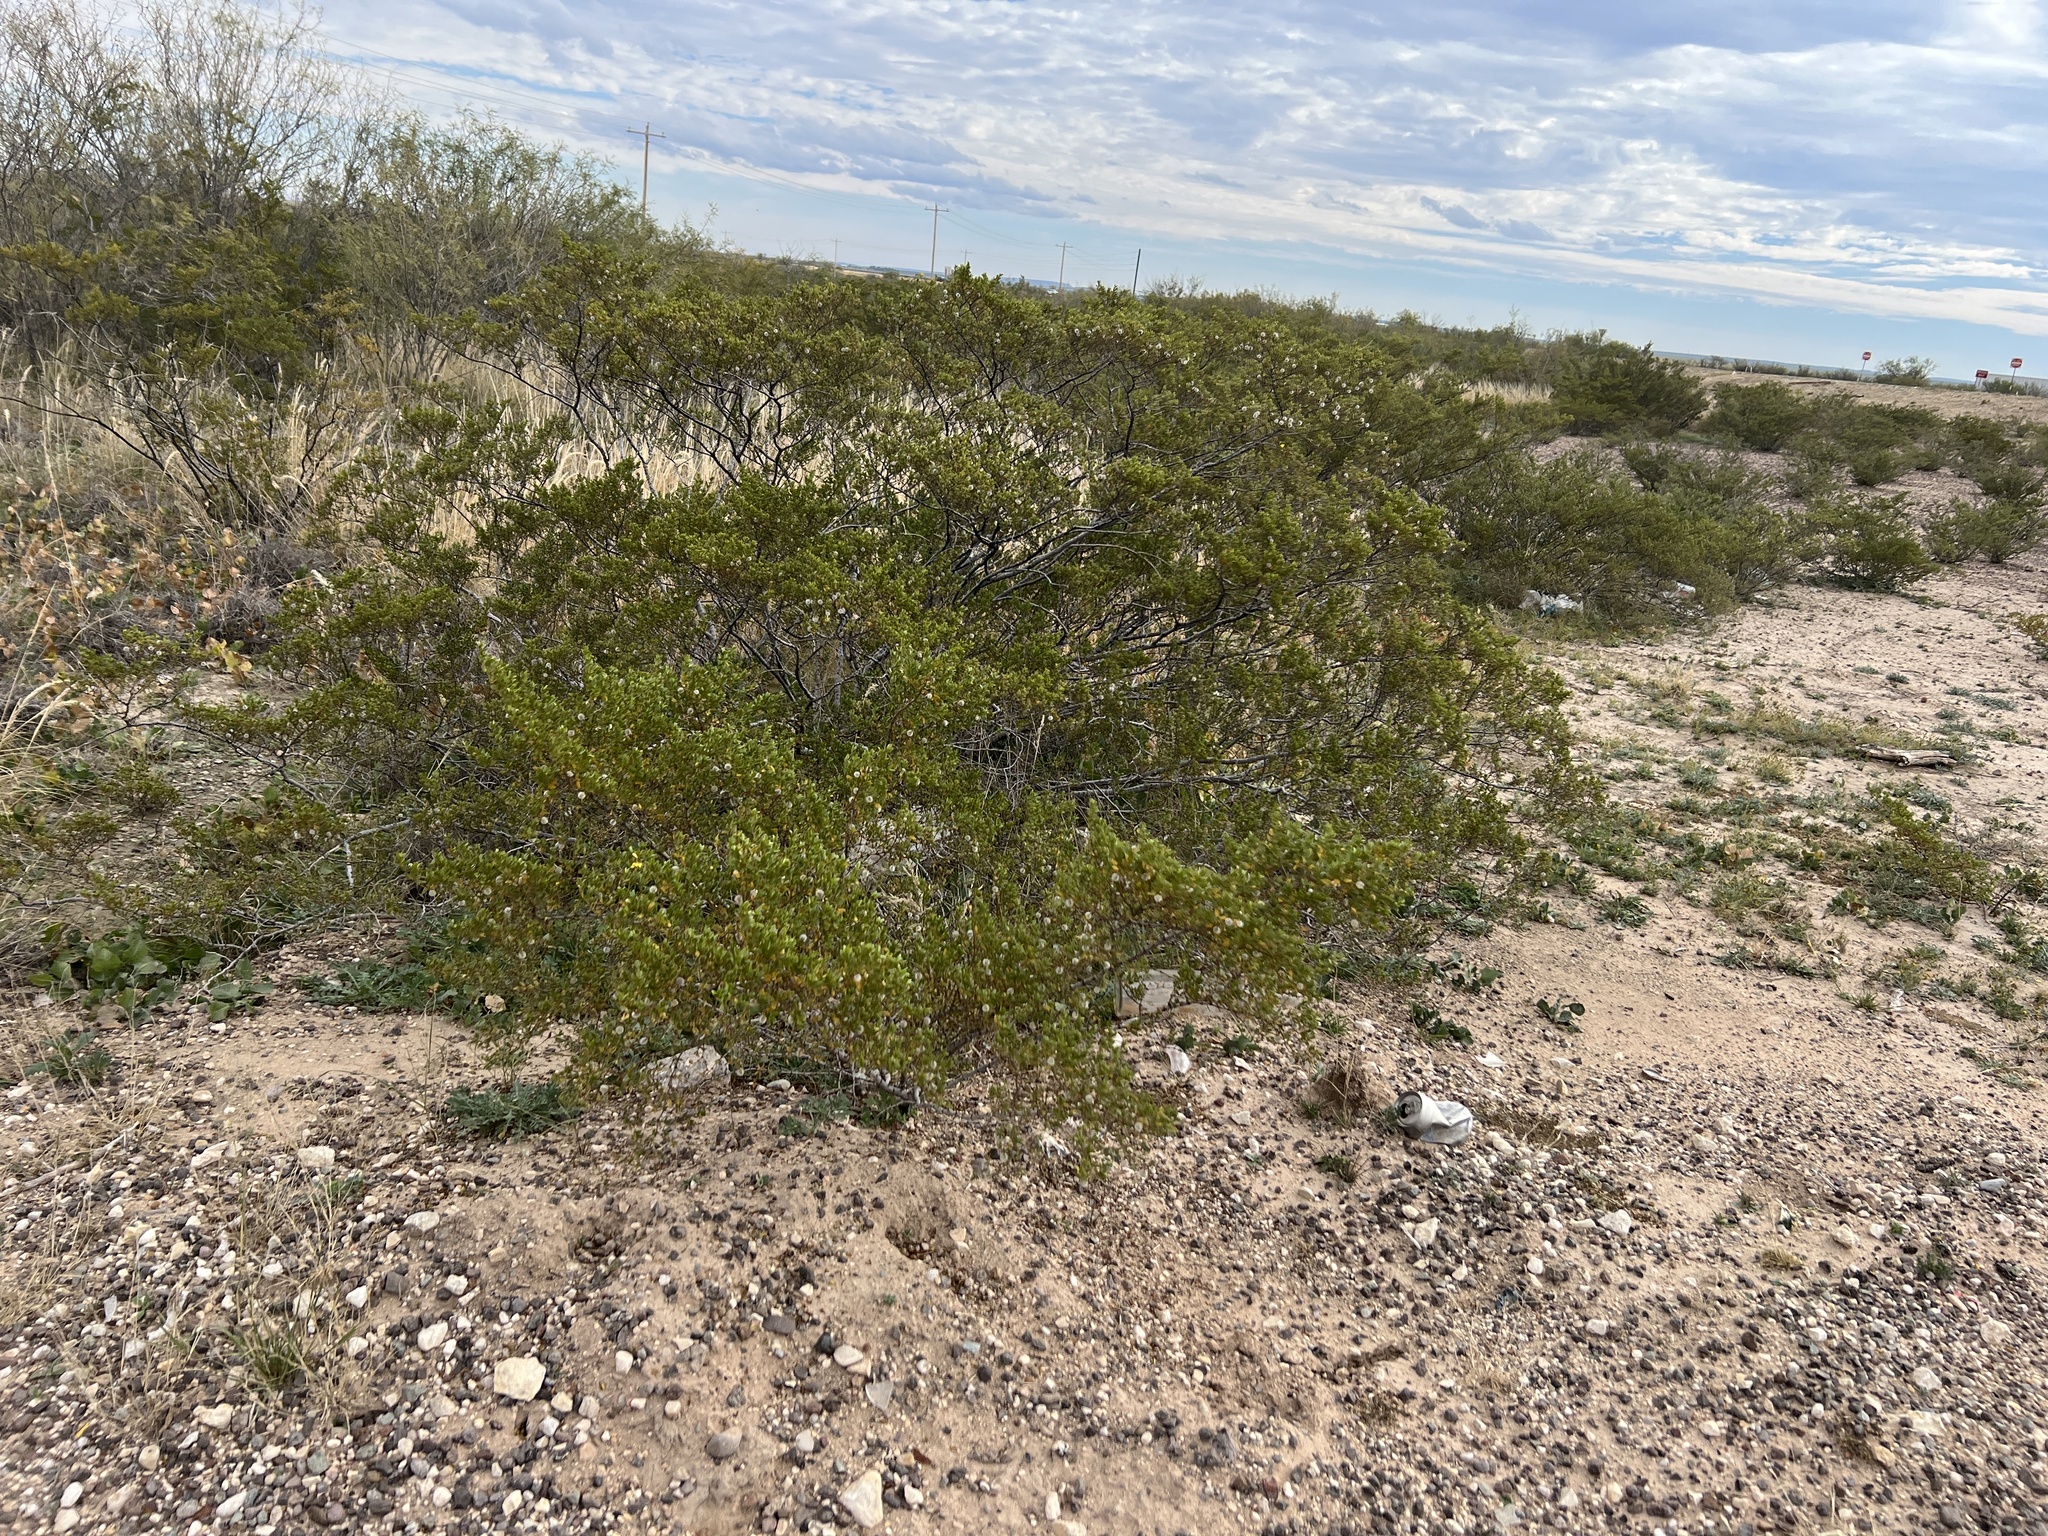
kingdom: Plantae
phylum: Tracheophyta
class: Magnoliopsida
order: Zygophyllales
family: Zygophyllaceae
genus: Larrea
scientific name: Larrea tridentata
